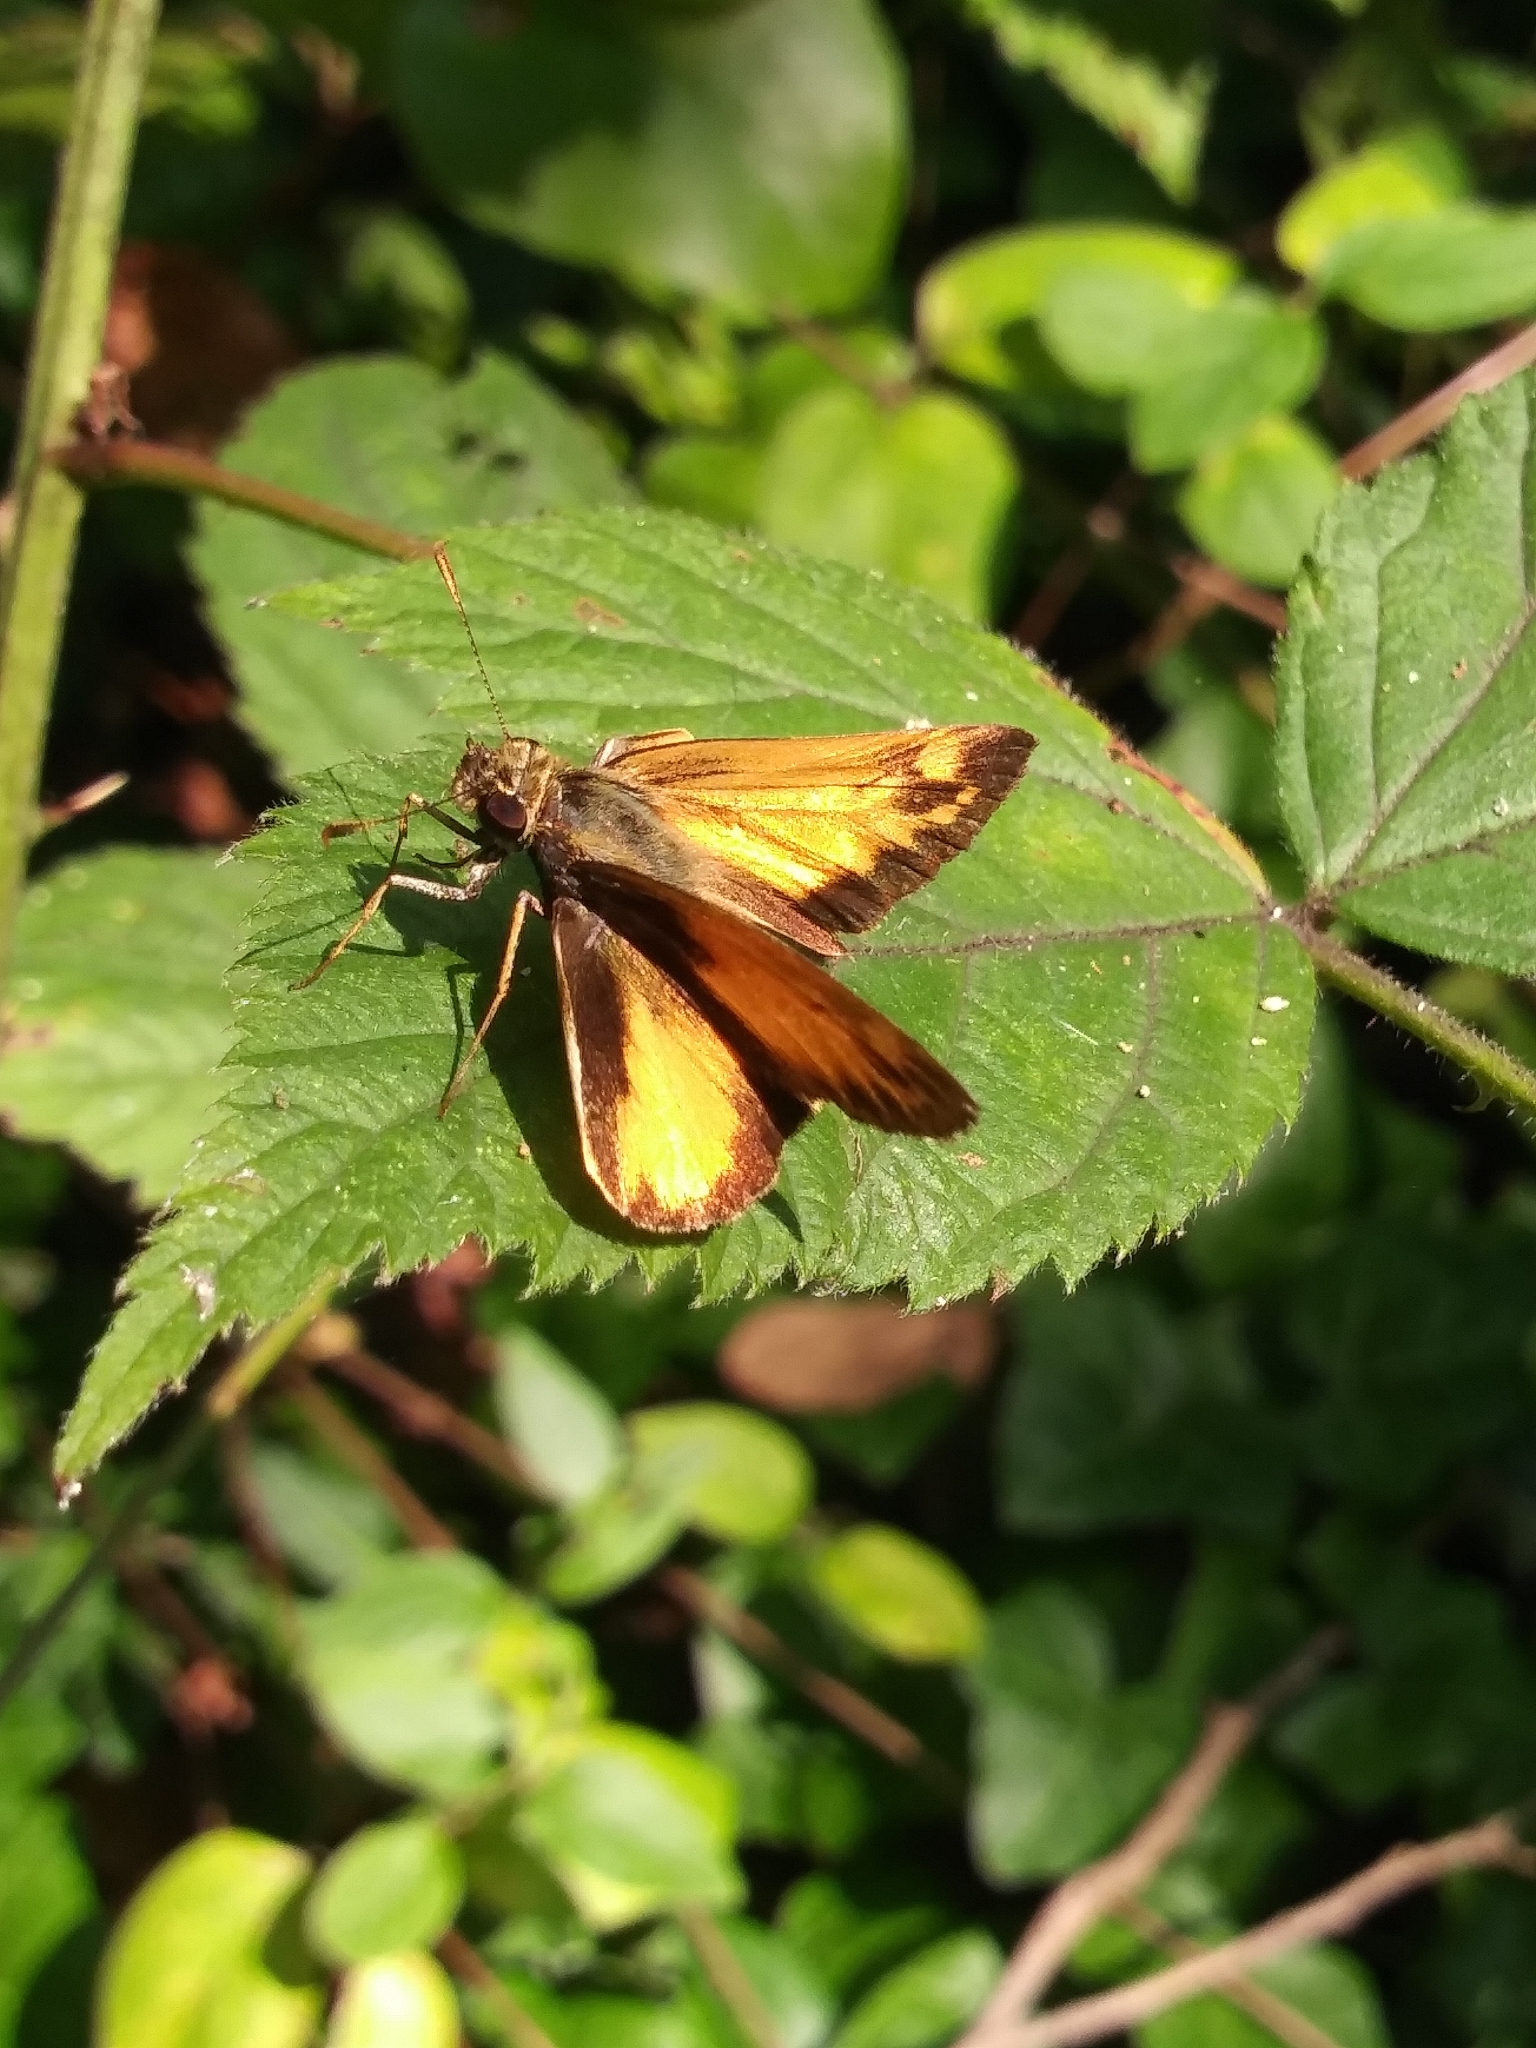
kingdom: Animalia
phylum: Arthropoda
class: Insecta
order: Lepidoptera
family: Hesperiidae
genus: Lon
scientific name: Lon zabulon
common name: Zabulon skipper
